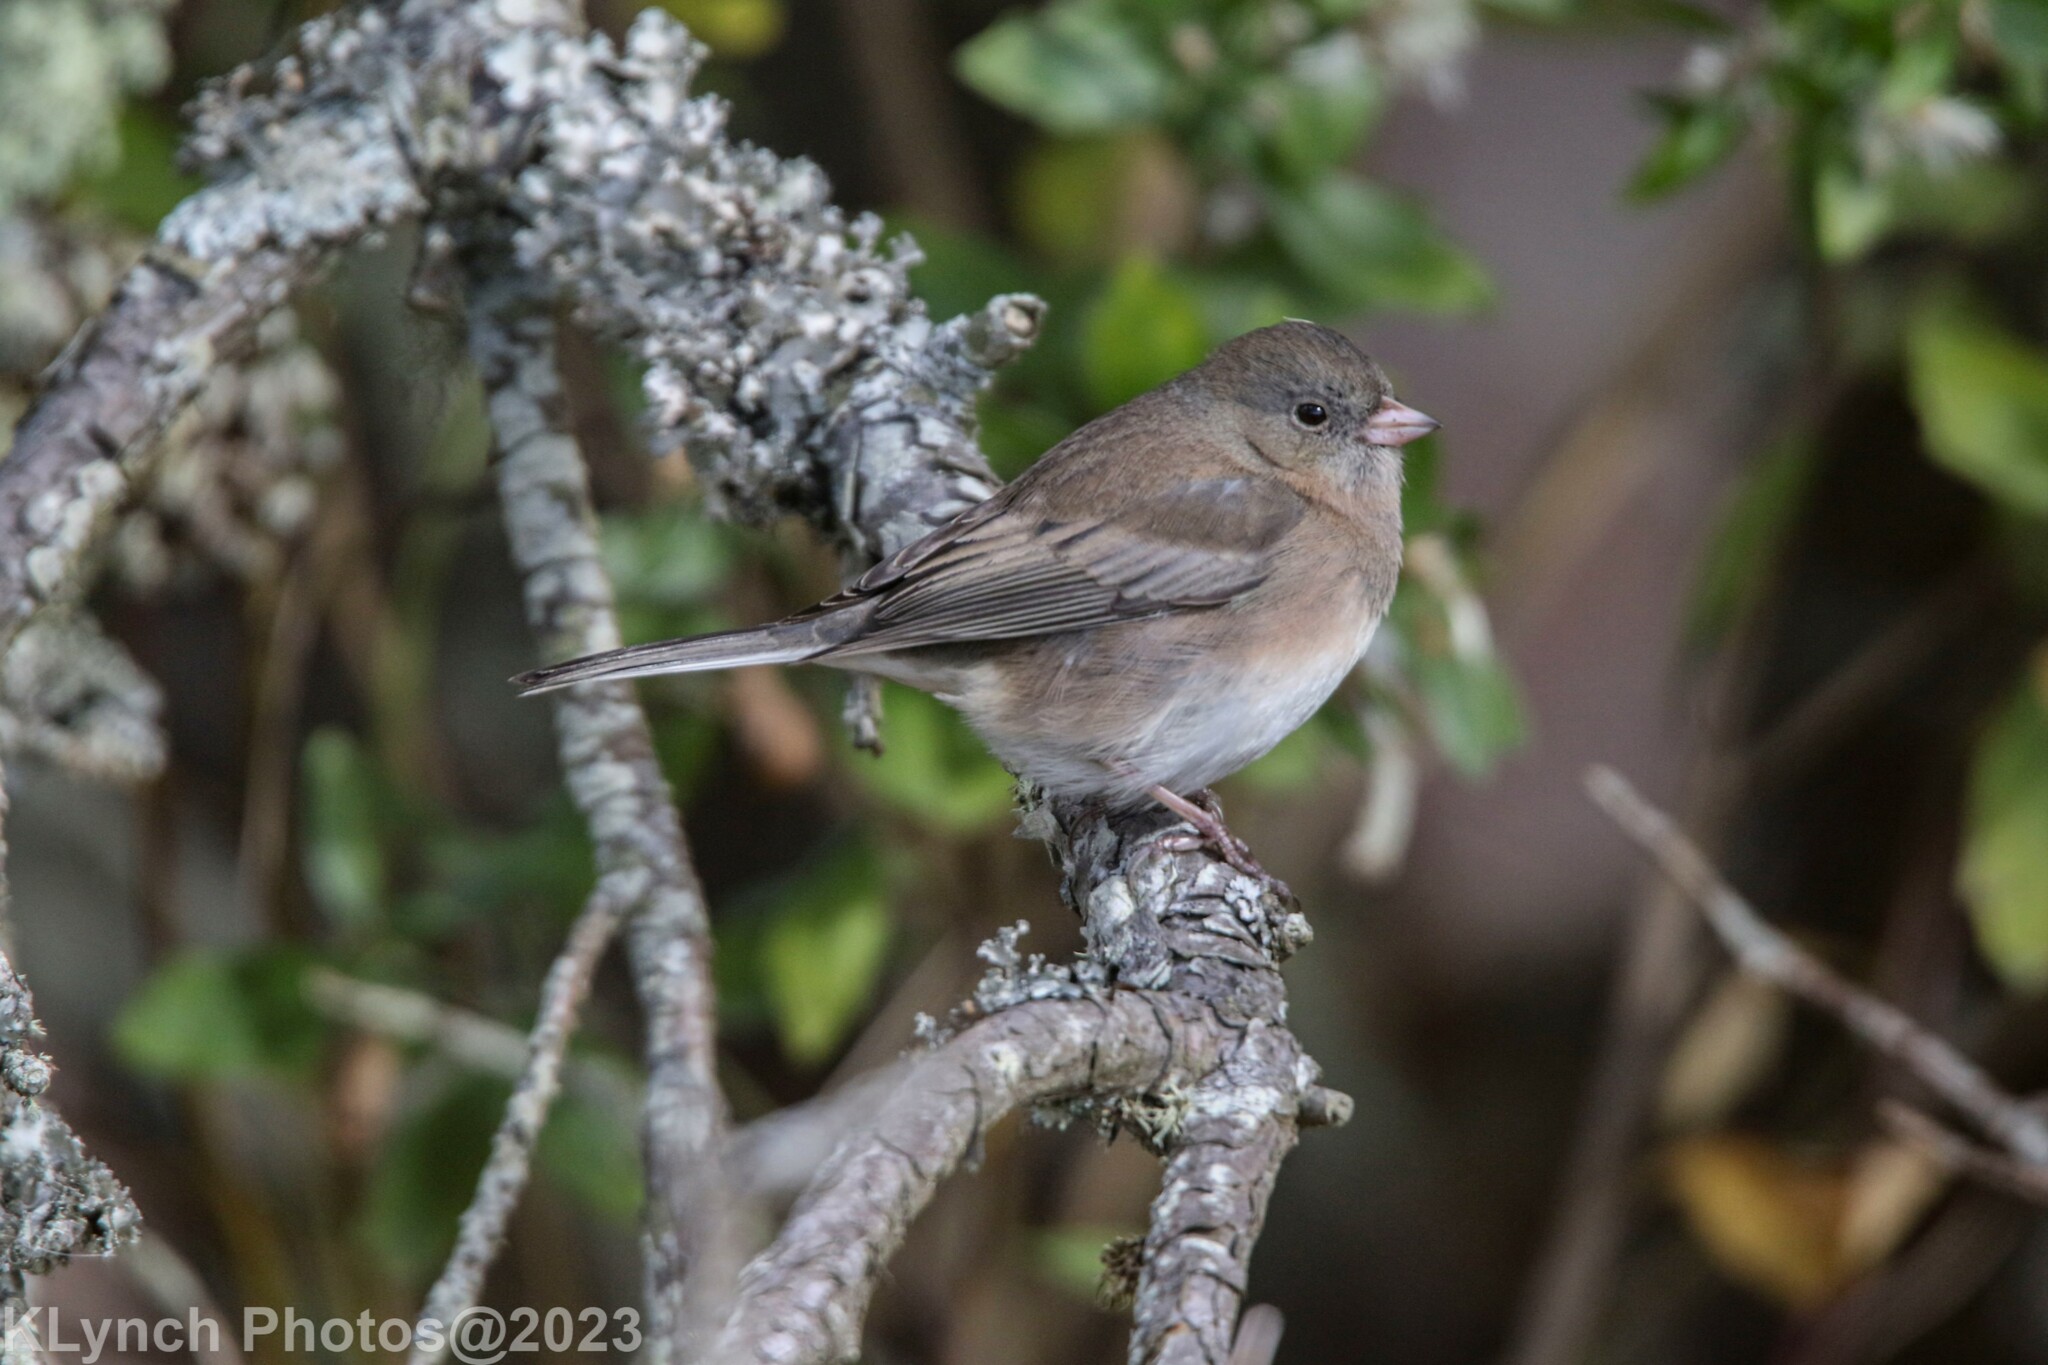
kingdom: Animalia
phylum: Chordata
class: Aves
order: Passeriformes
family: Passerellidae
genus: Junco
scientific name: Junco hyemalis
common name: Dark-eyed junco
